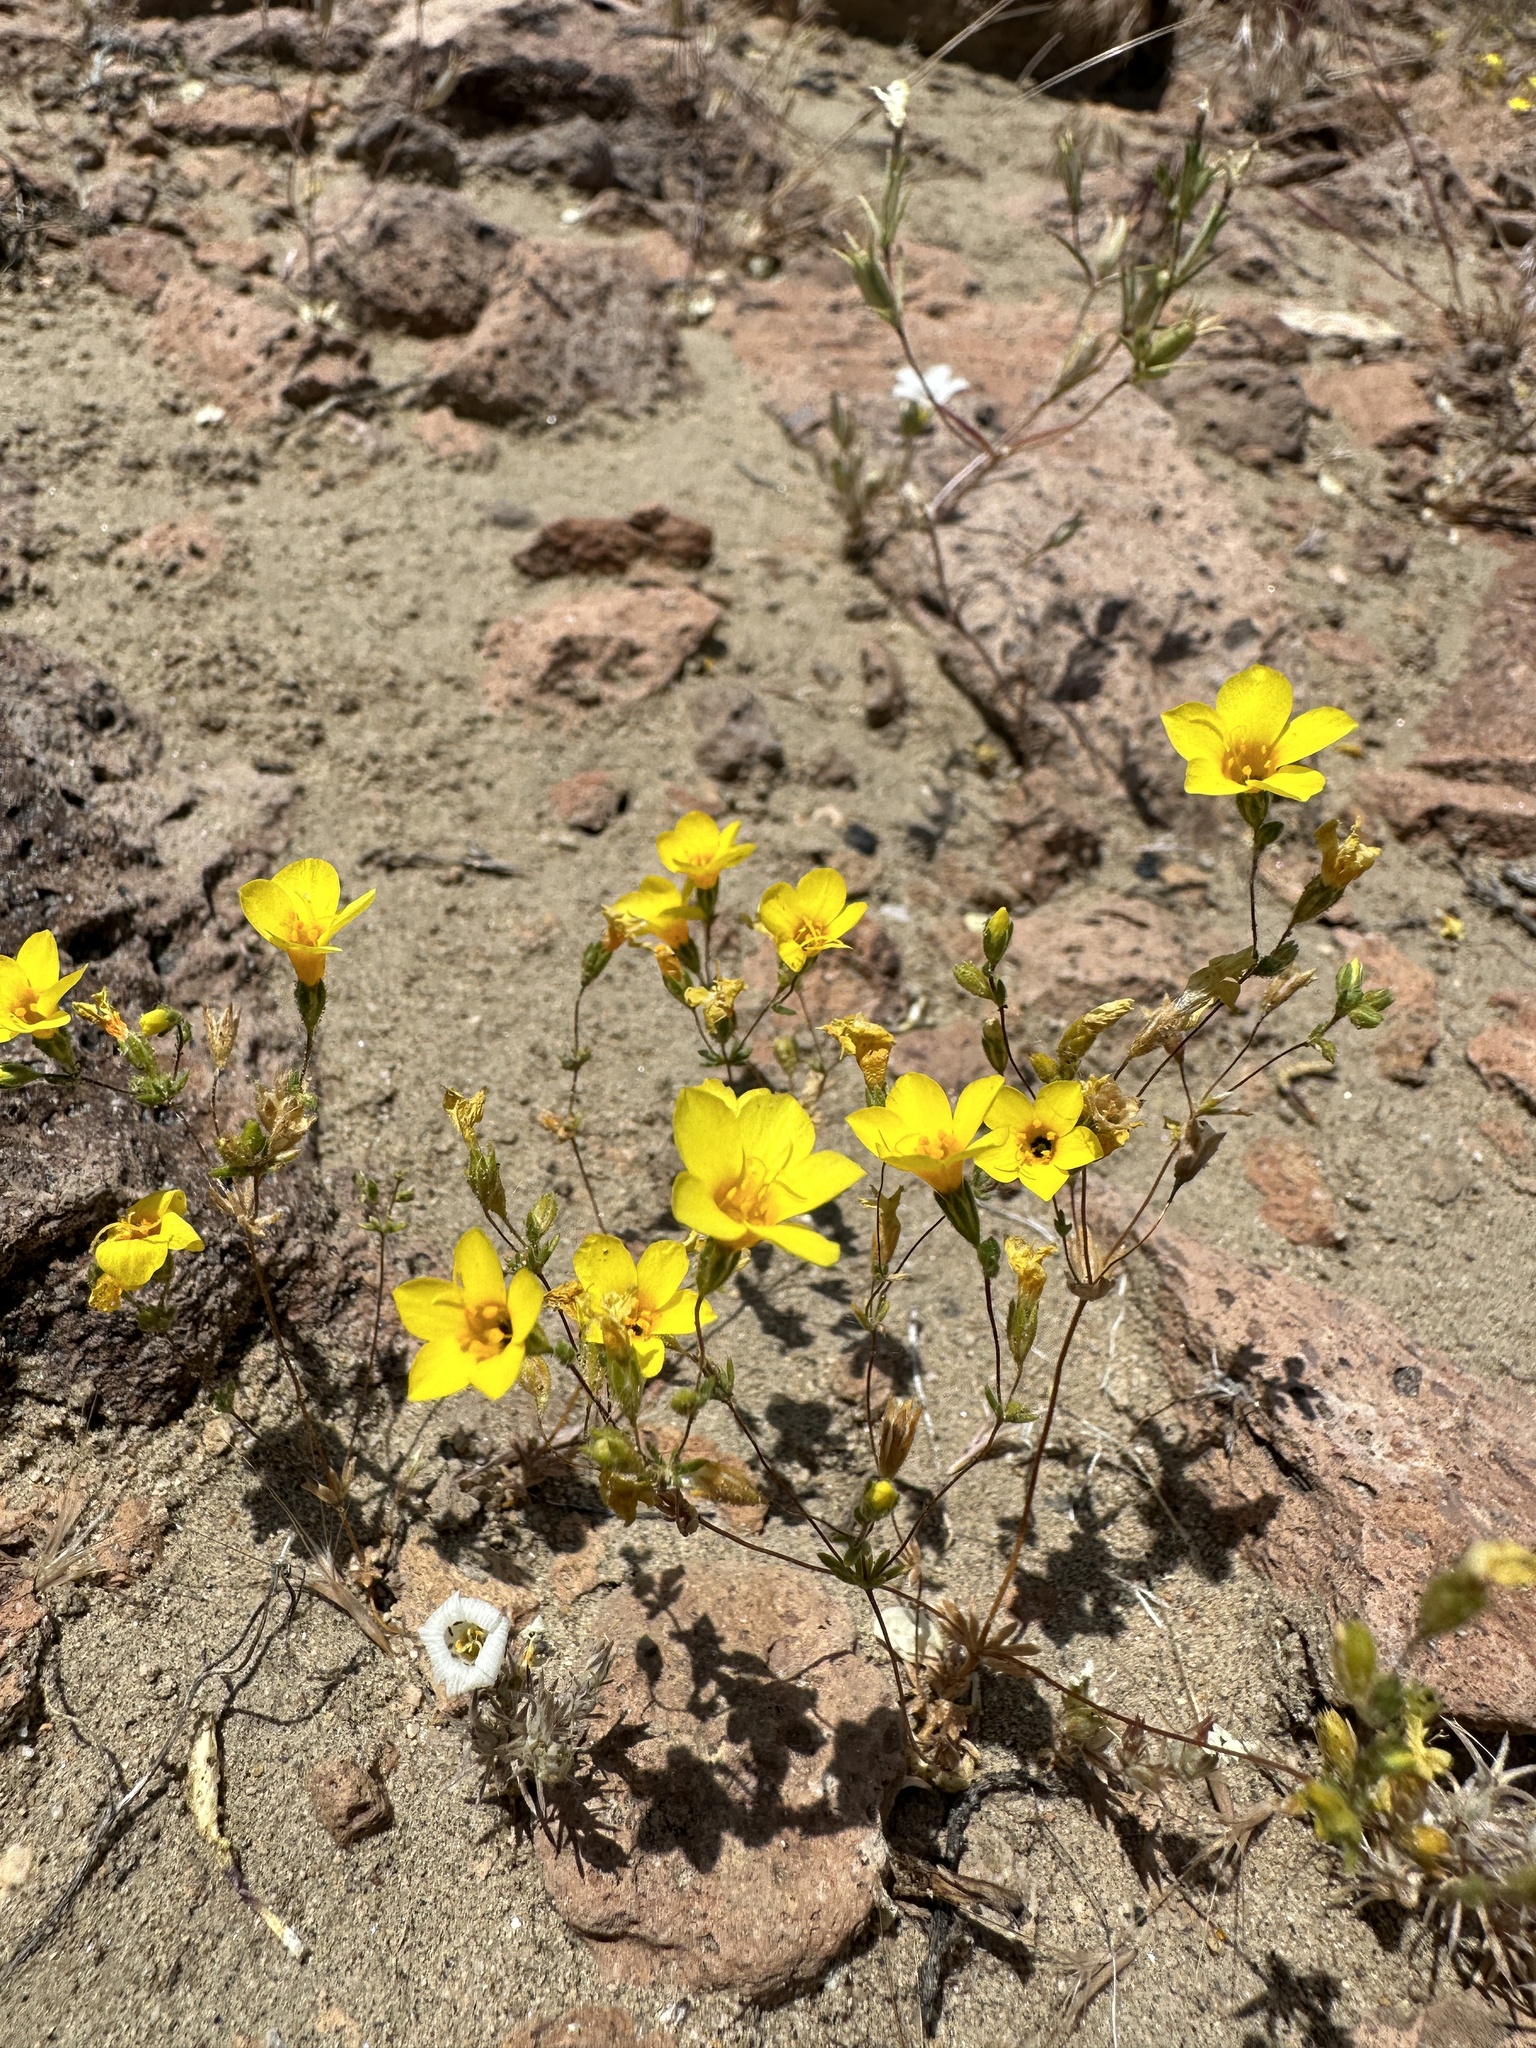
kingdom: Plantae
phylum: Tracheophyta
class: Magnoliopsida
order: Ericales
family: Polemoniaceae
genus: Leptosiphon
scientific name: Leptosiphon chrysanthus
